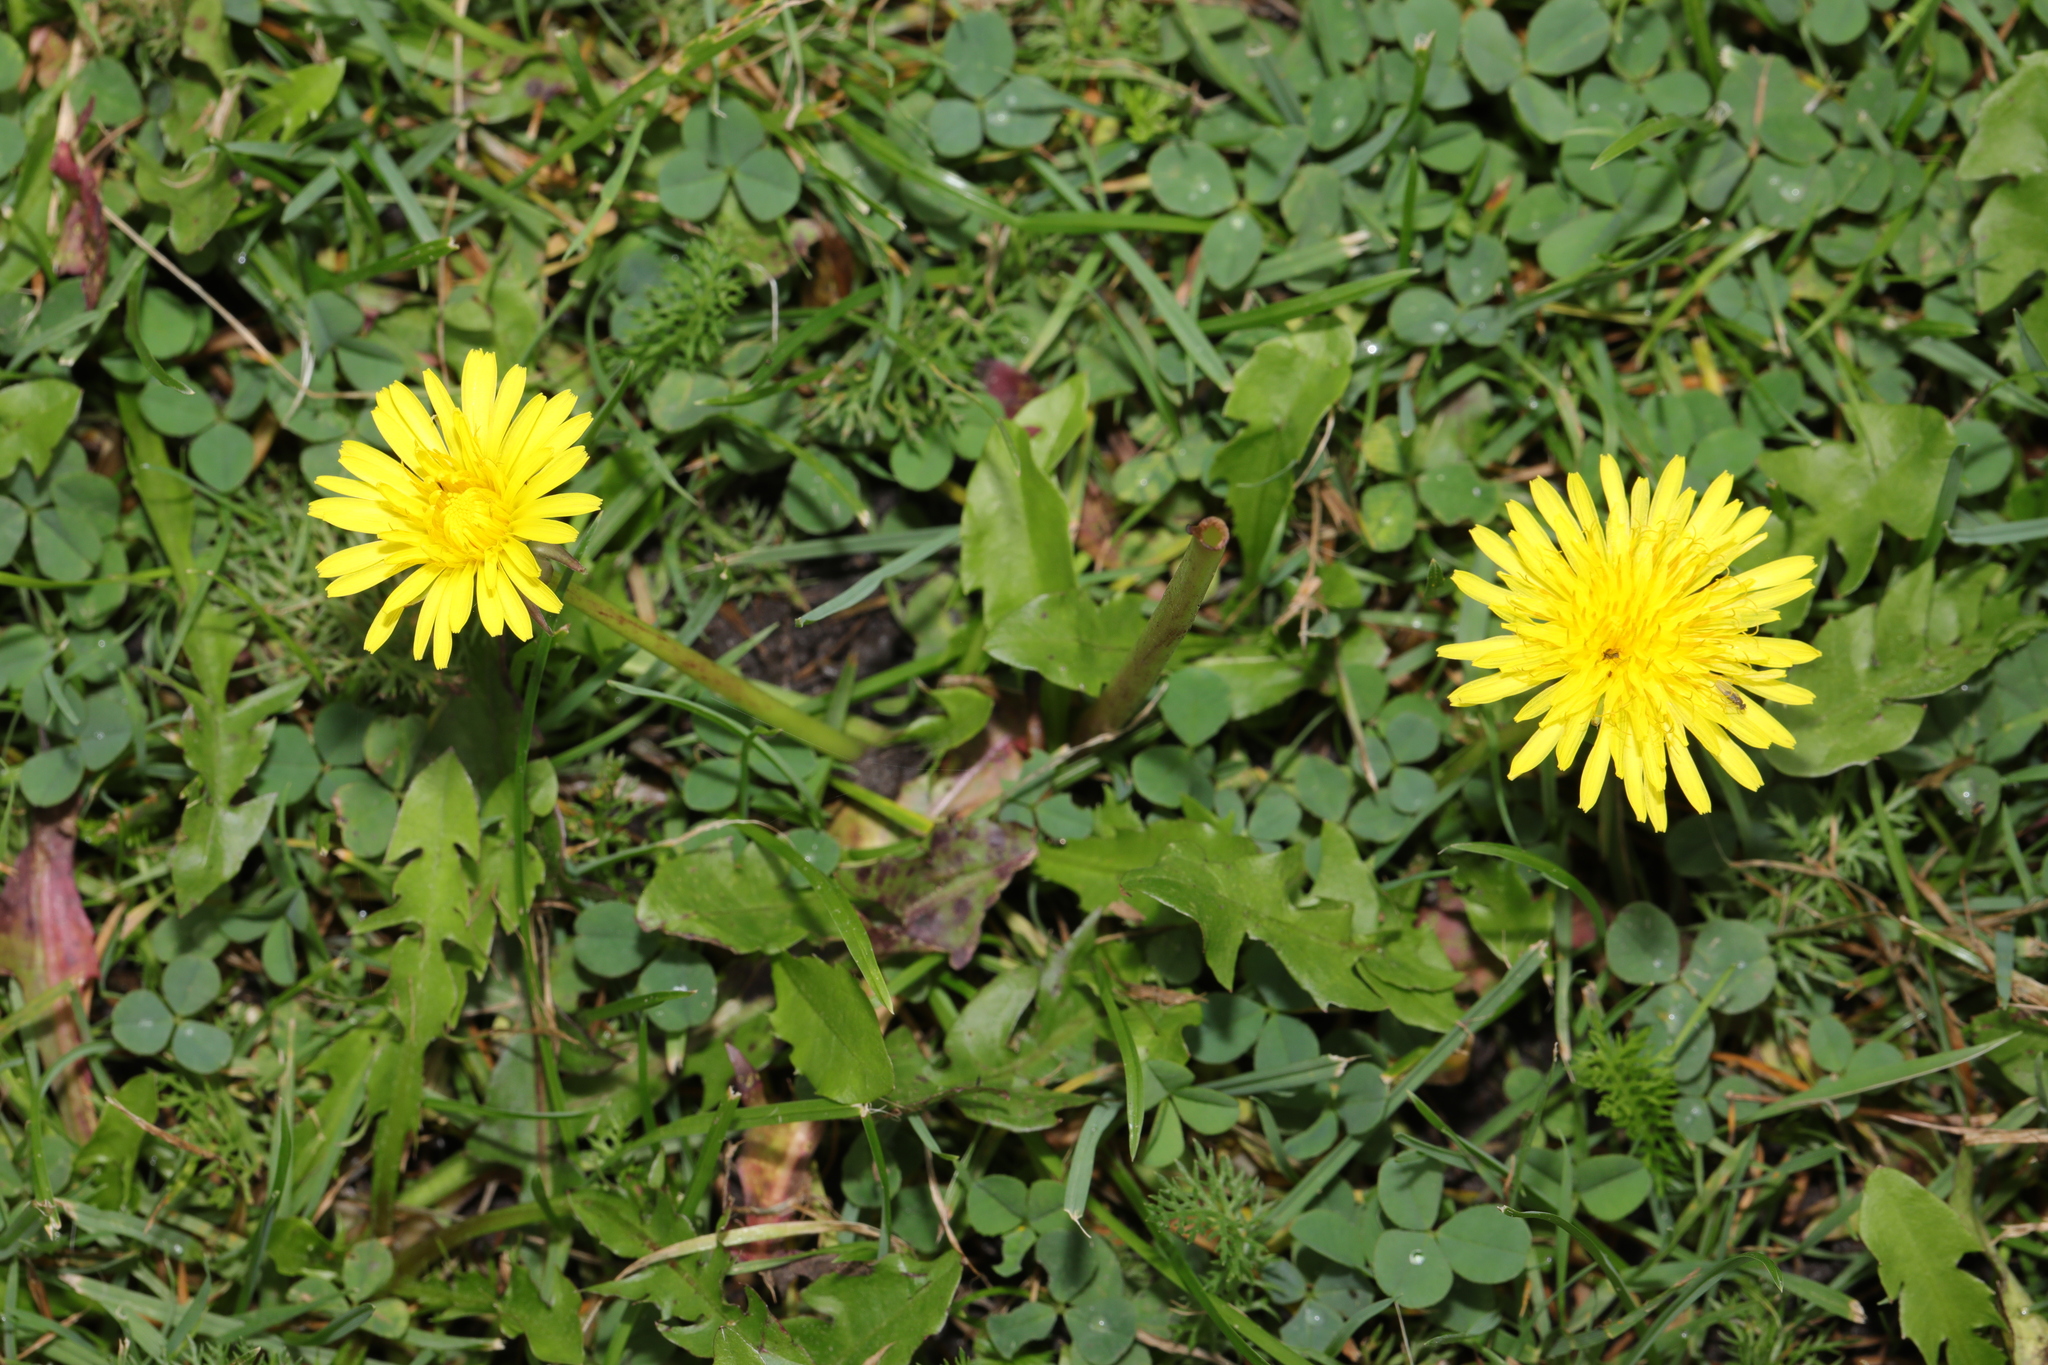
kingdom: Plantae
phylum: Tracheophyta
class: Magnoliopsida
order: Asterales
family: Asteraceae
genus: Taraxacum
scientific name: Taraxacum officinale
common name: Common dandelion
